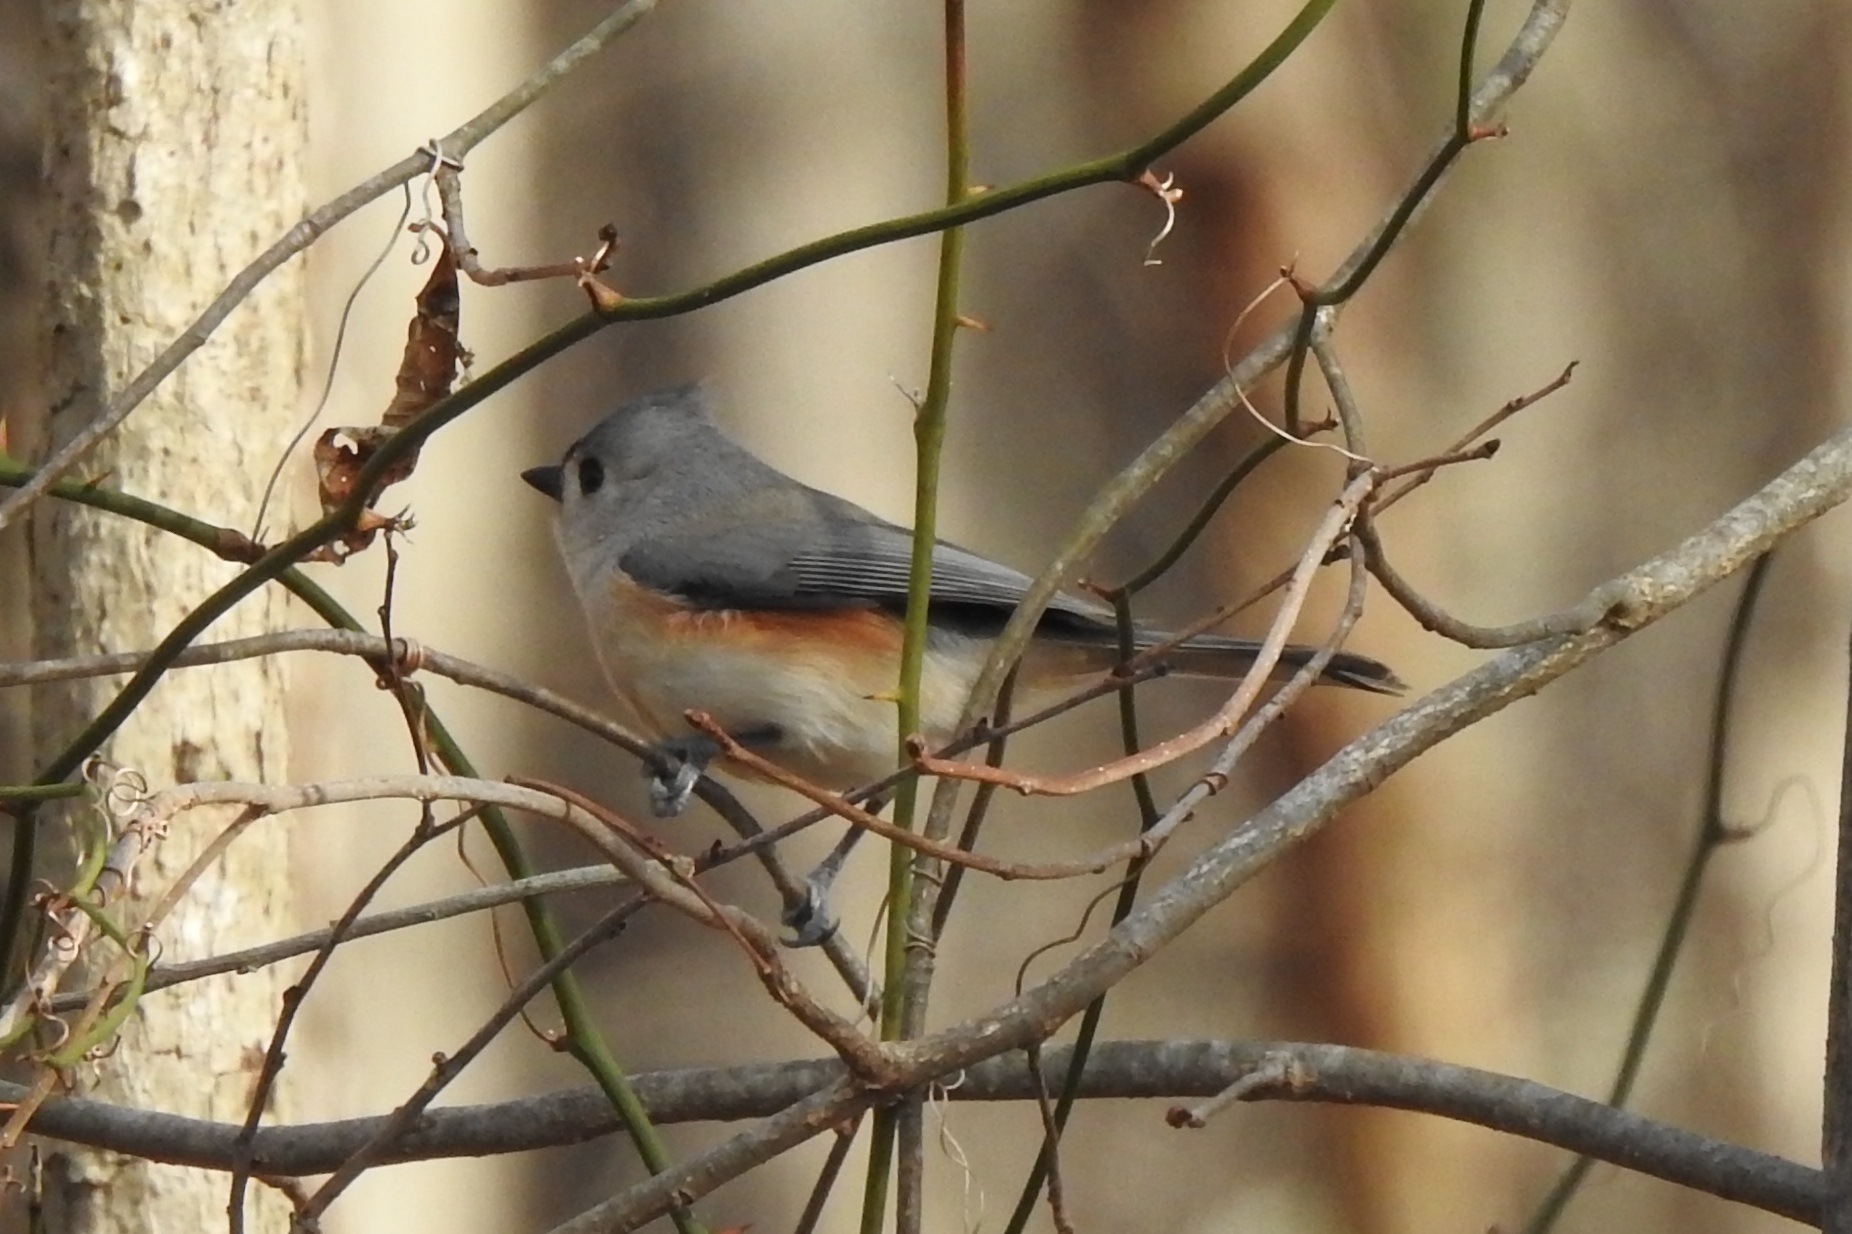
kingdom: Animalia
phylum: Chordata
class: Aves
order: Passeriformes
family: Paridae
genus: Baeolophus
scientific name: Baeolophus bicolor
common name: Tufted titmouse
